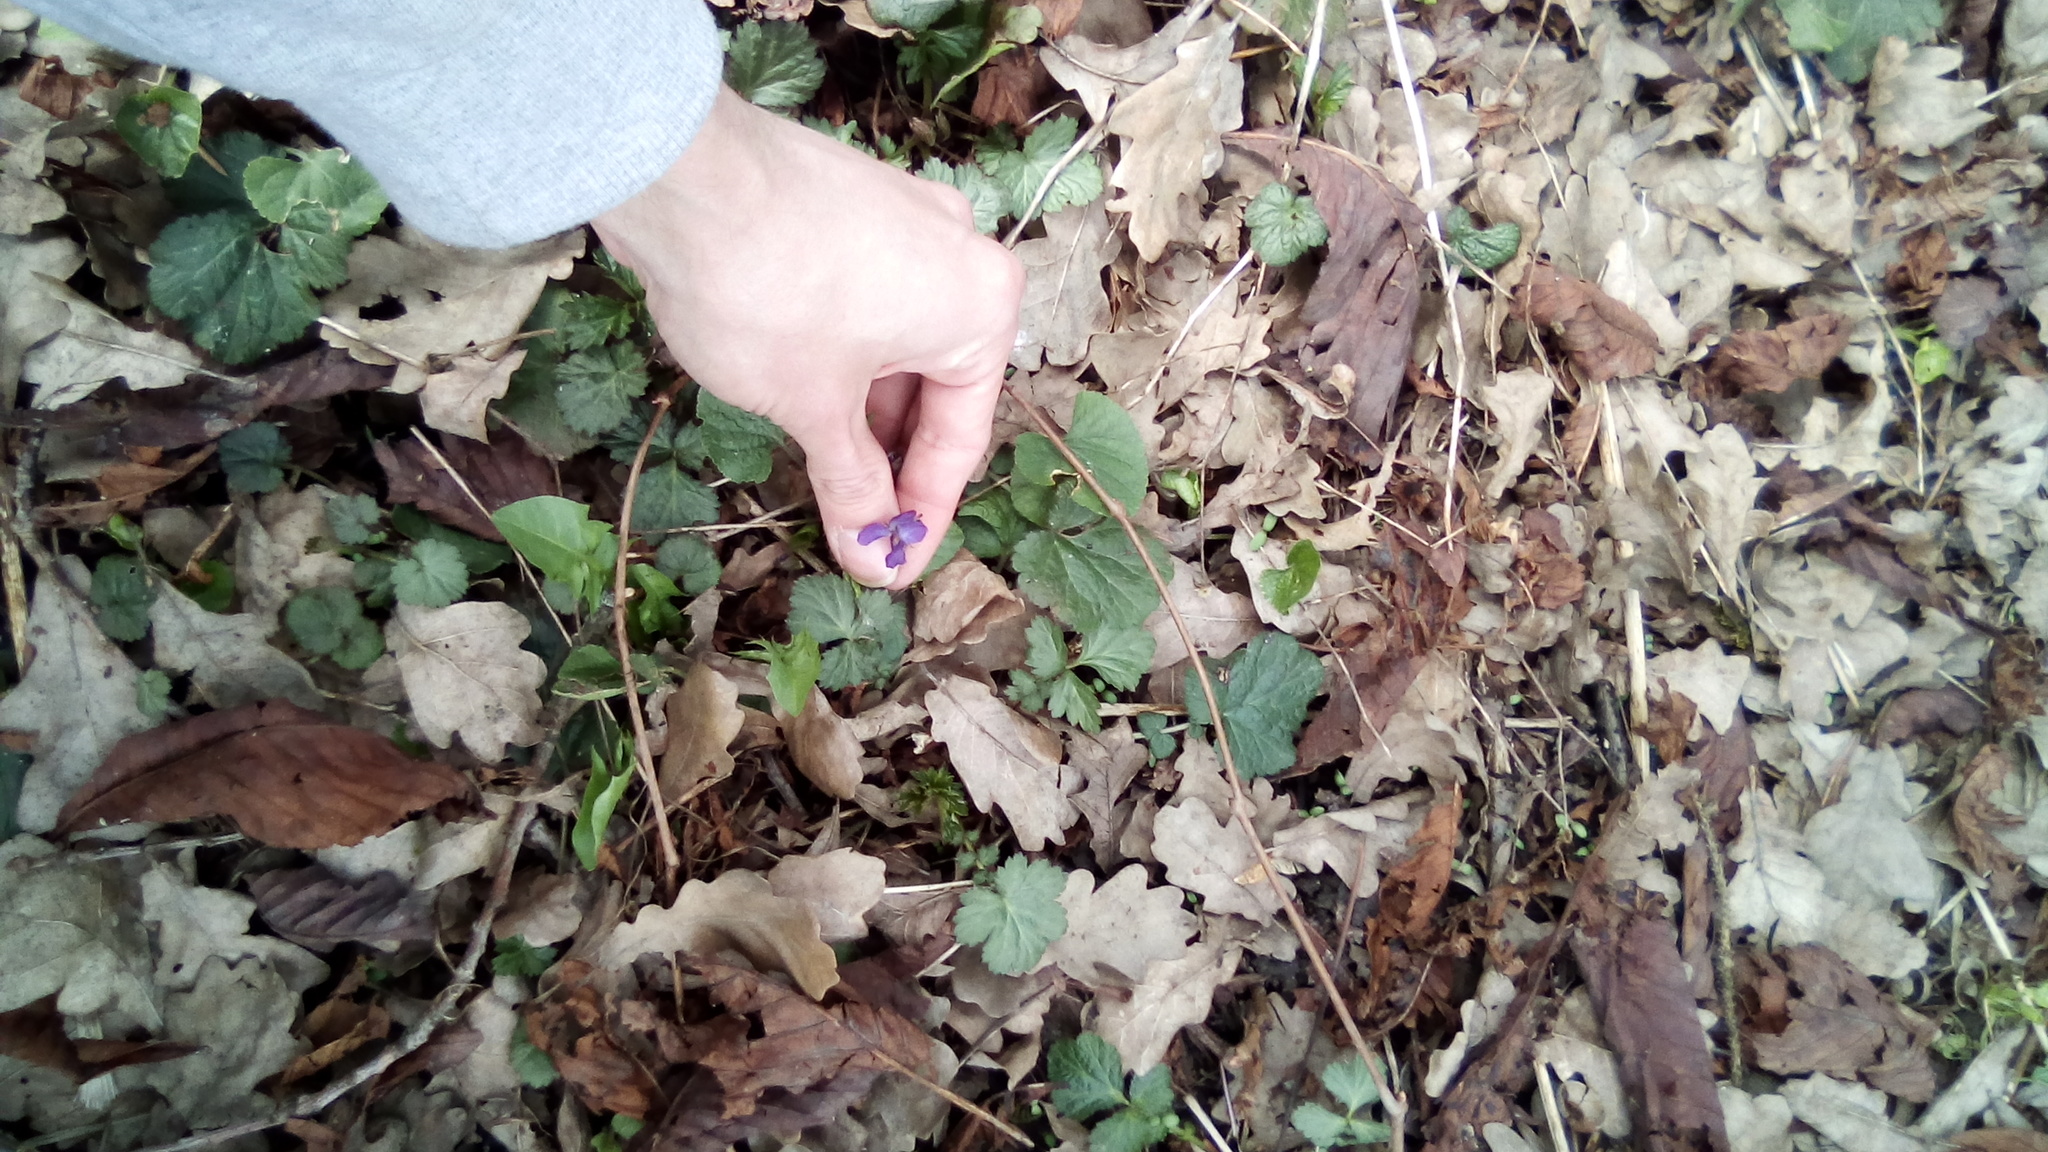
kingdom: Plantae
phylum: Tracheophyta
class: Magnoliopsida
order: Malpighiales
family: Violaceae
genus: Viola
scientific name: Viola odorata
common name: Sweet violet
